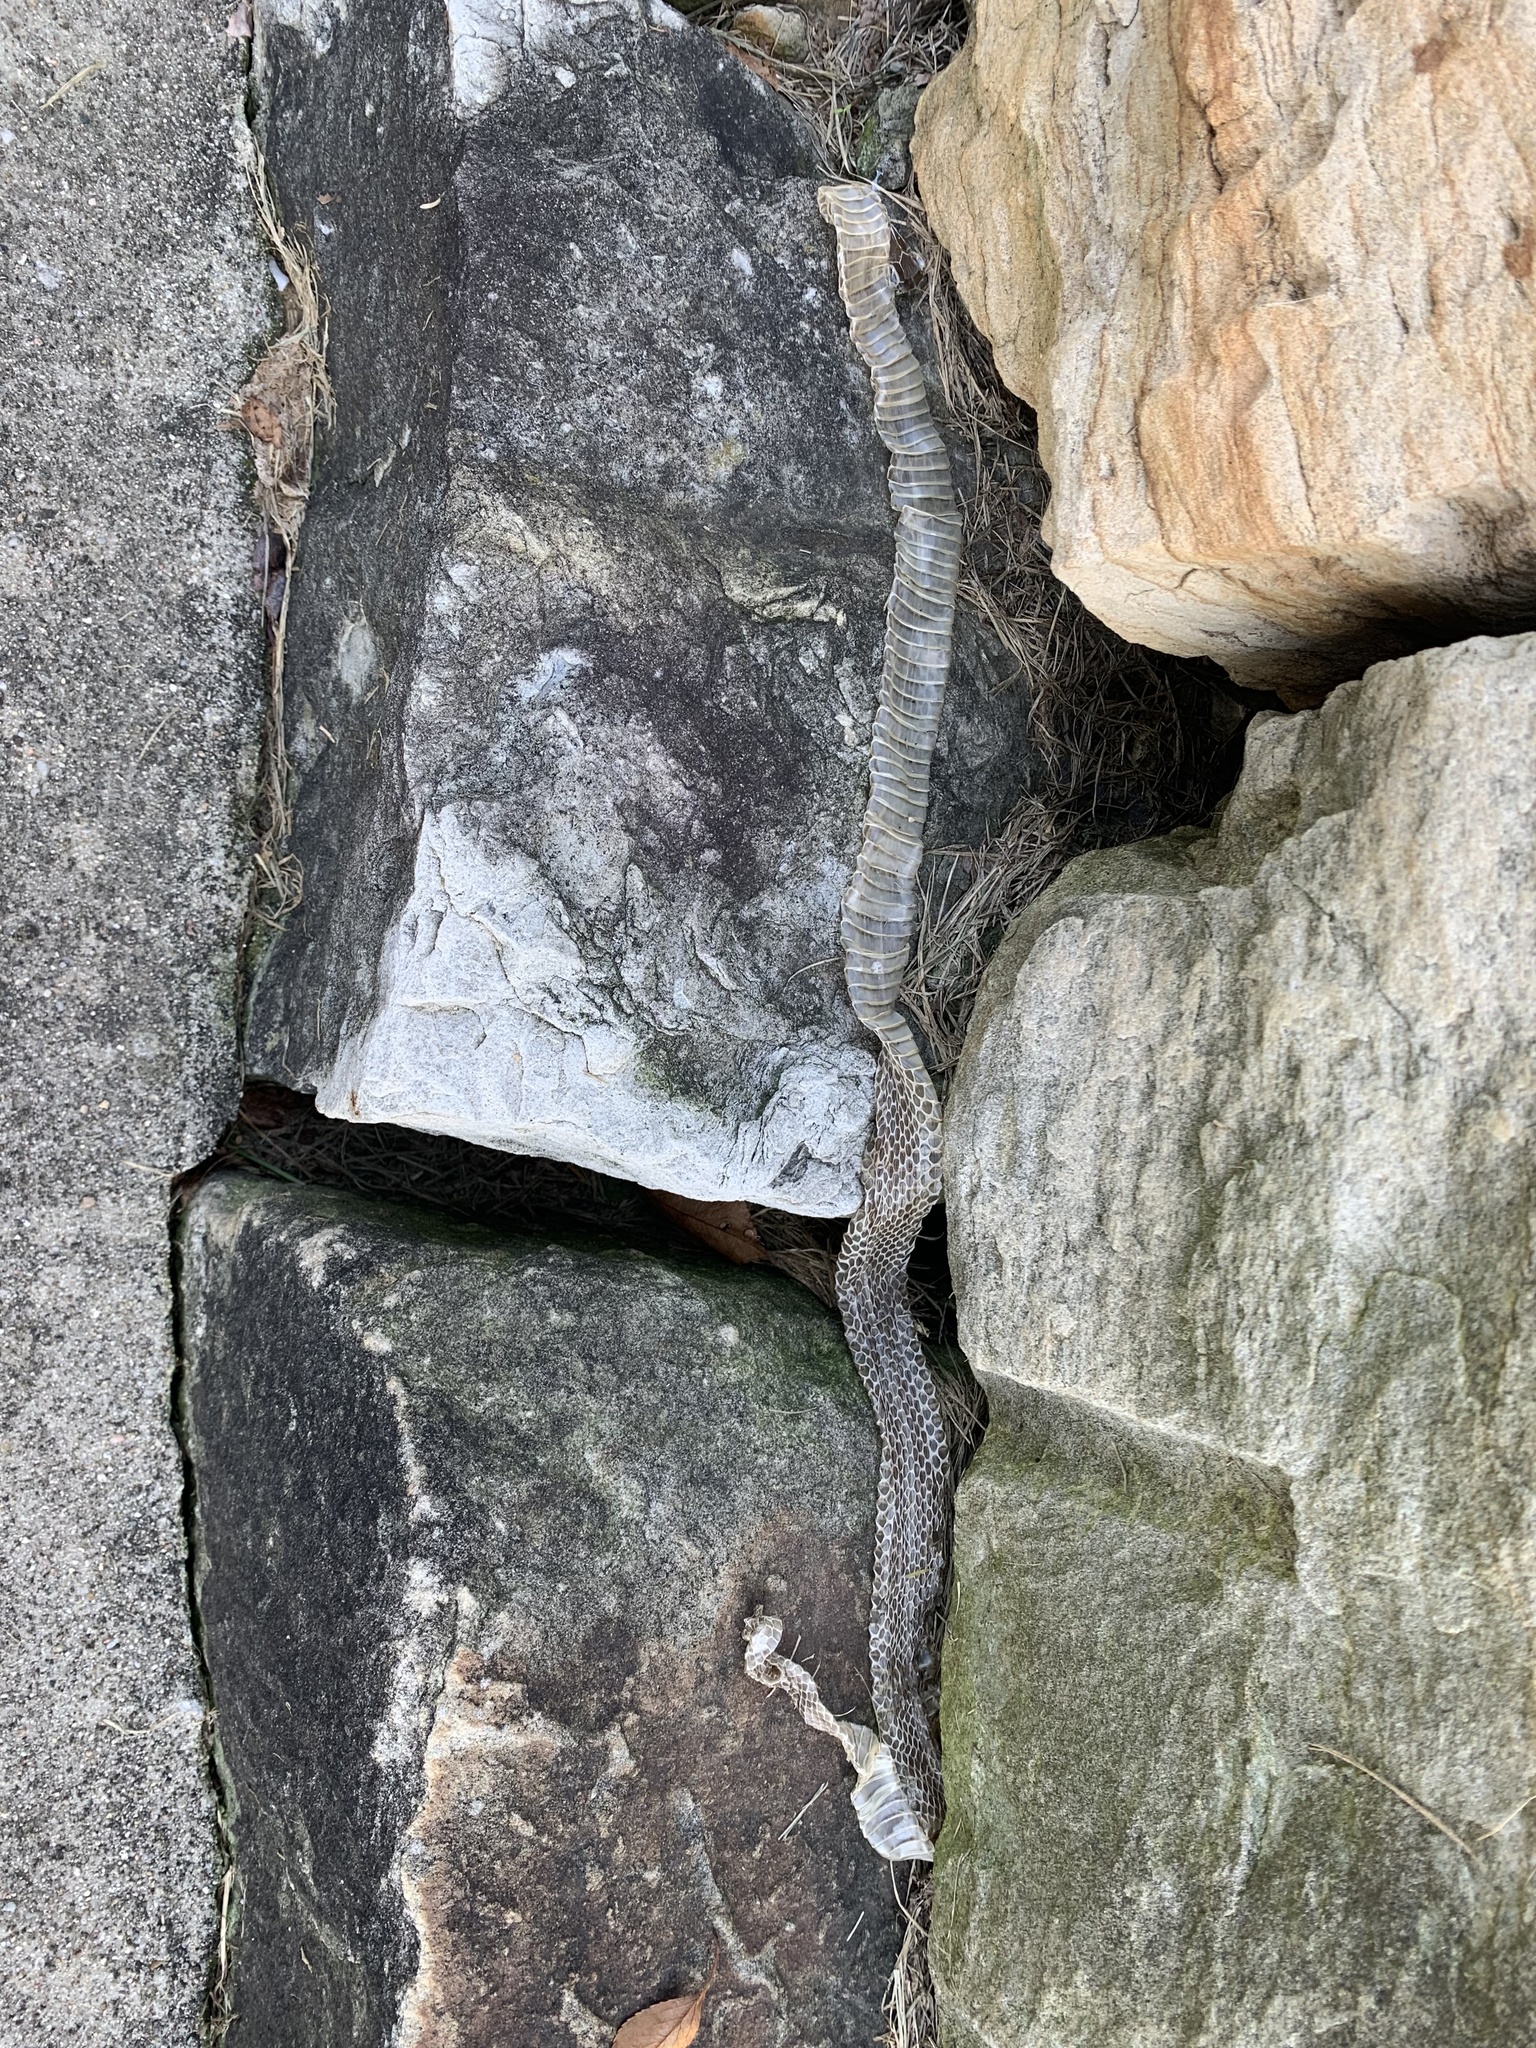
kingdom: Animalia
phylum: Chordata
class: Squamata
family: Colubridae
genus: Thamnophis
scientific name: Thamnophis sirtalis
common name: Common garter snake
